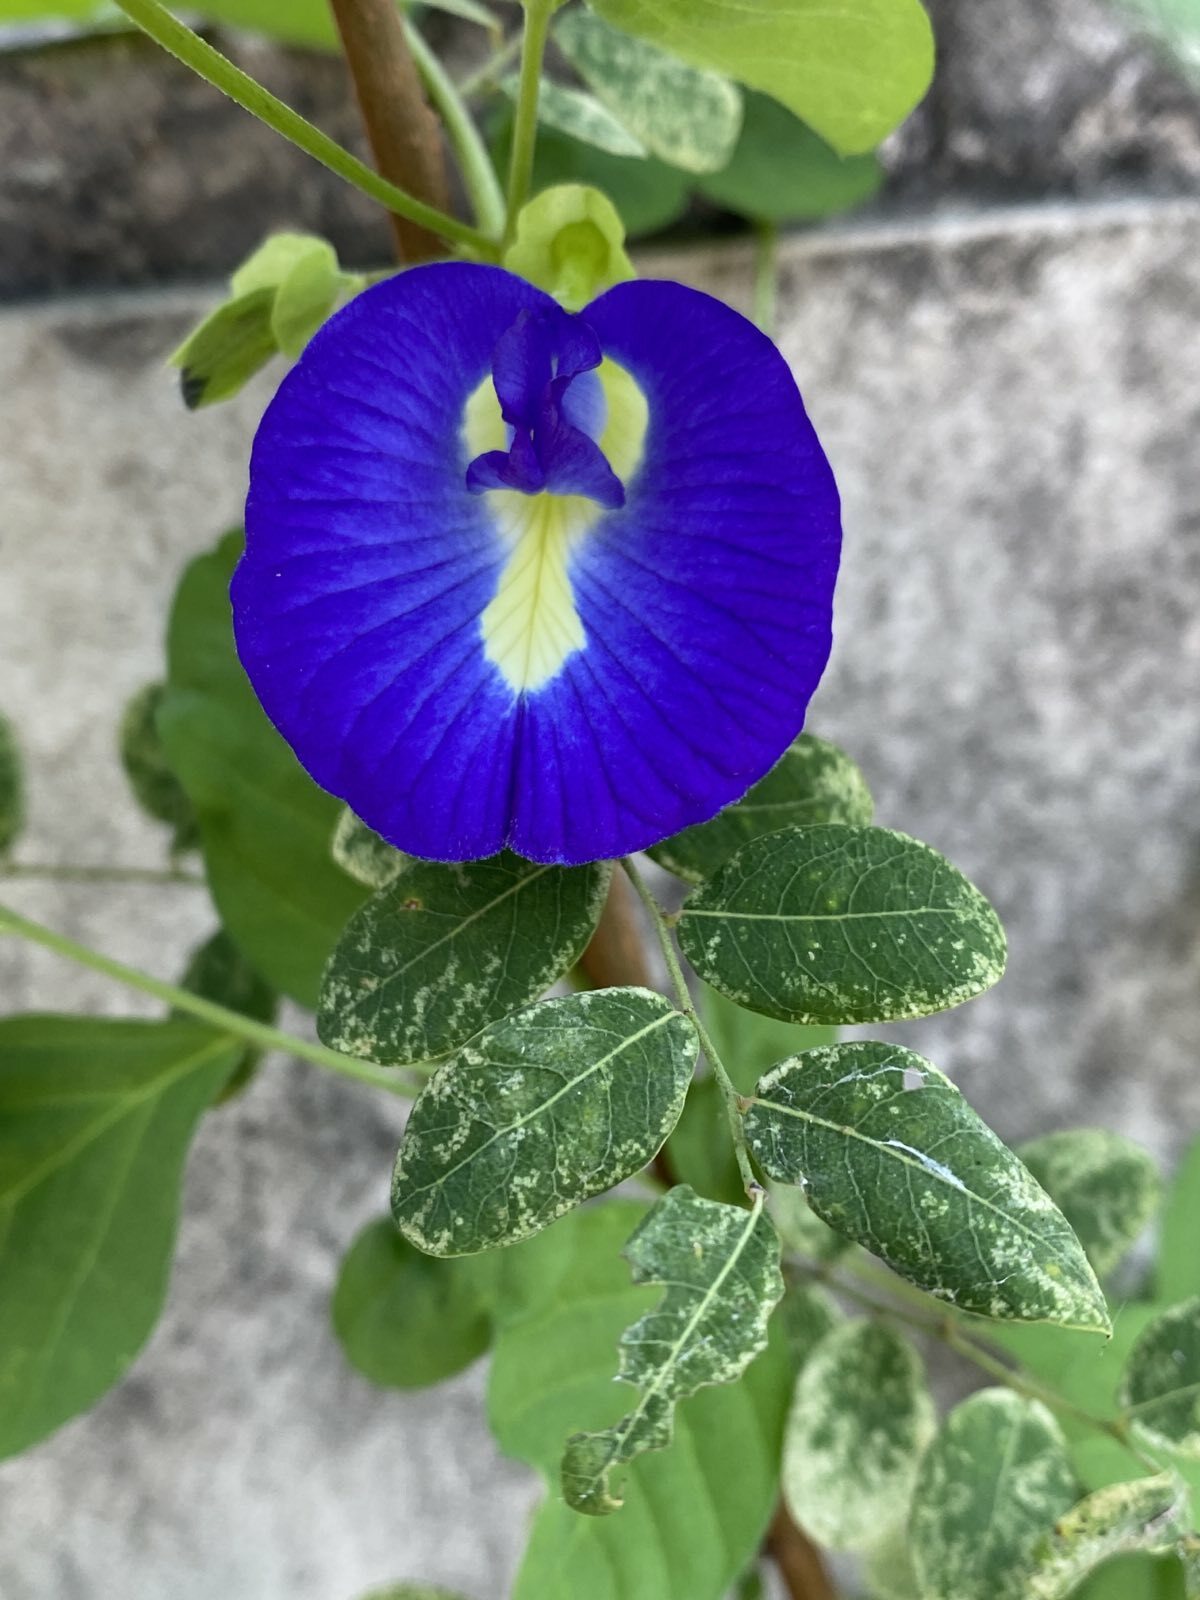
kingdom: Plantae
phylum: Tracheophyta
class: Magnoliopsida
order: Fabales
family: Fabaceae
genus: Clitoria
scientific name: Clitoria ternatea
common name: Asian pigeonwings
